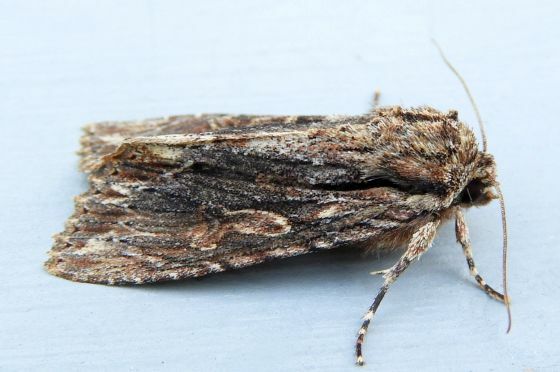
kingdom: Animalia
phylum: Arthropoda
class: Insecta
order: Lepidoptera
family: Noctuidae
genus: Achatia
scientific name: Achatia confusa
